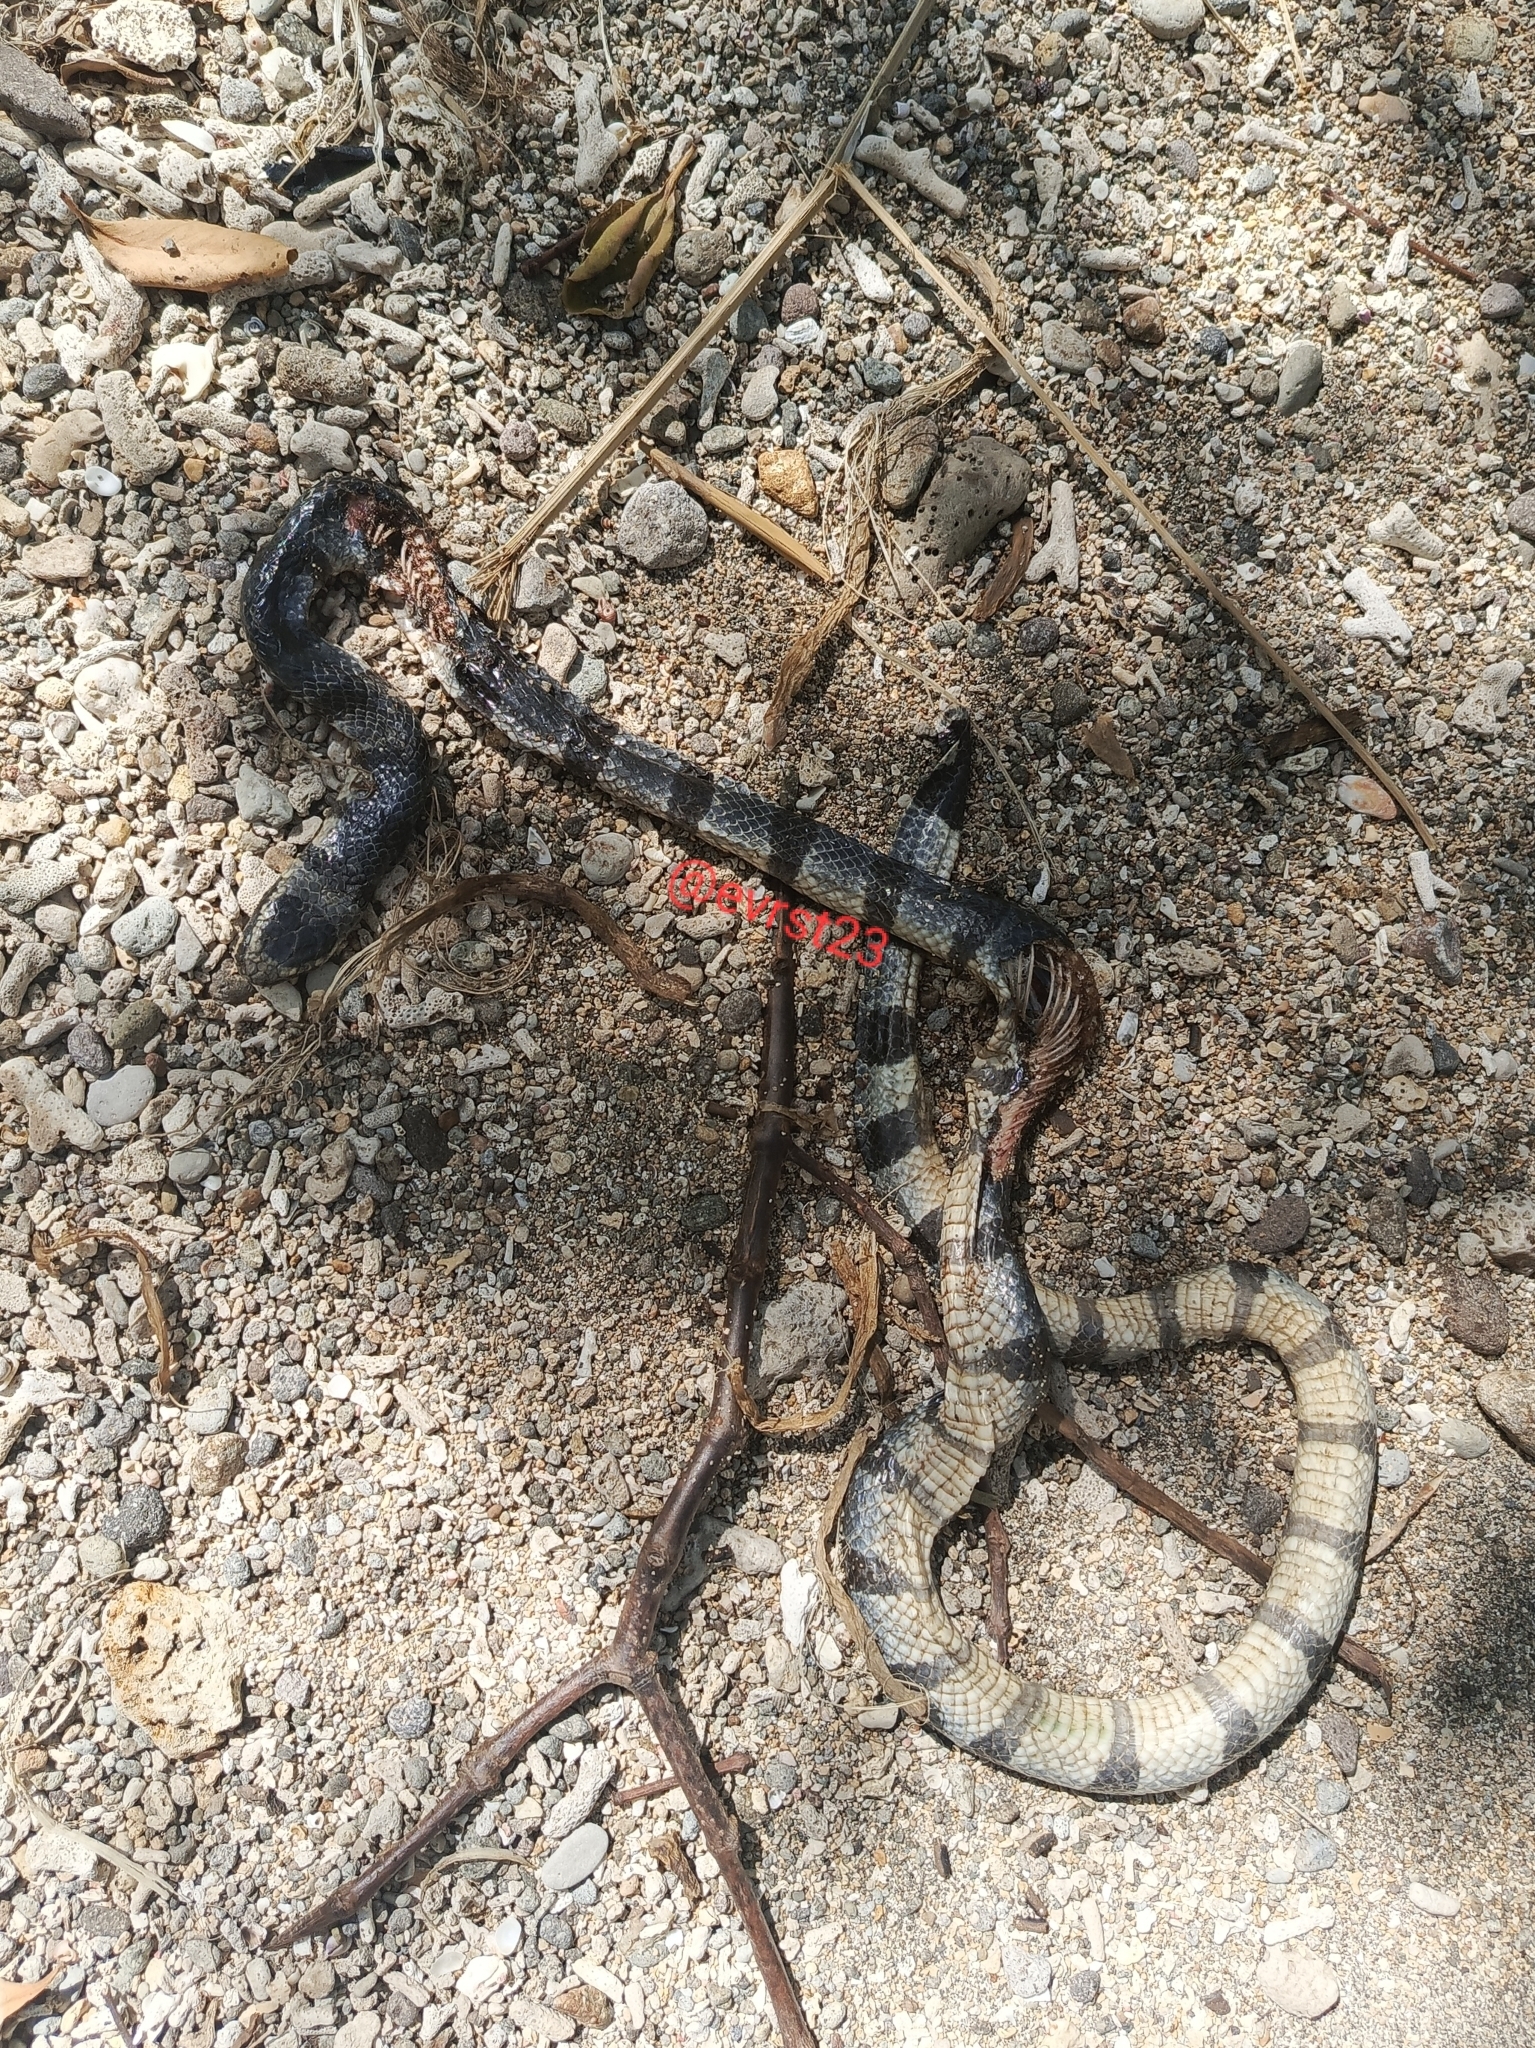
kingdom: Animalia
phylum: Chordata
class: Squamata
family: Elapidae
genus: Laticauda
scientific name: Laticauda colubrina
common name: Yellow-lipped sea krait
